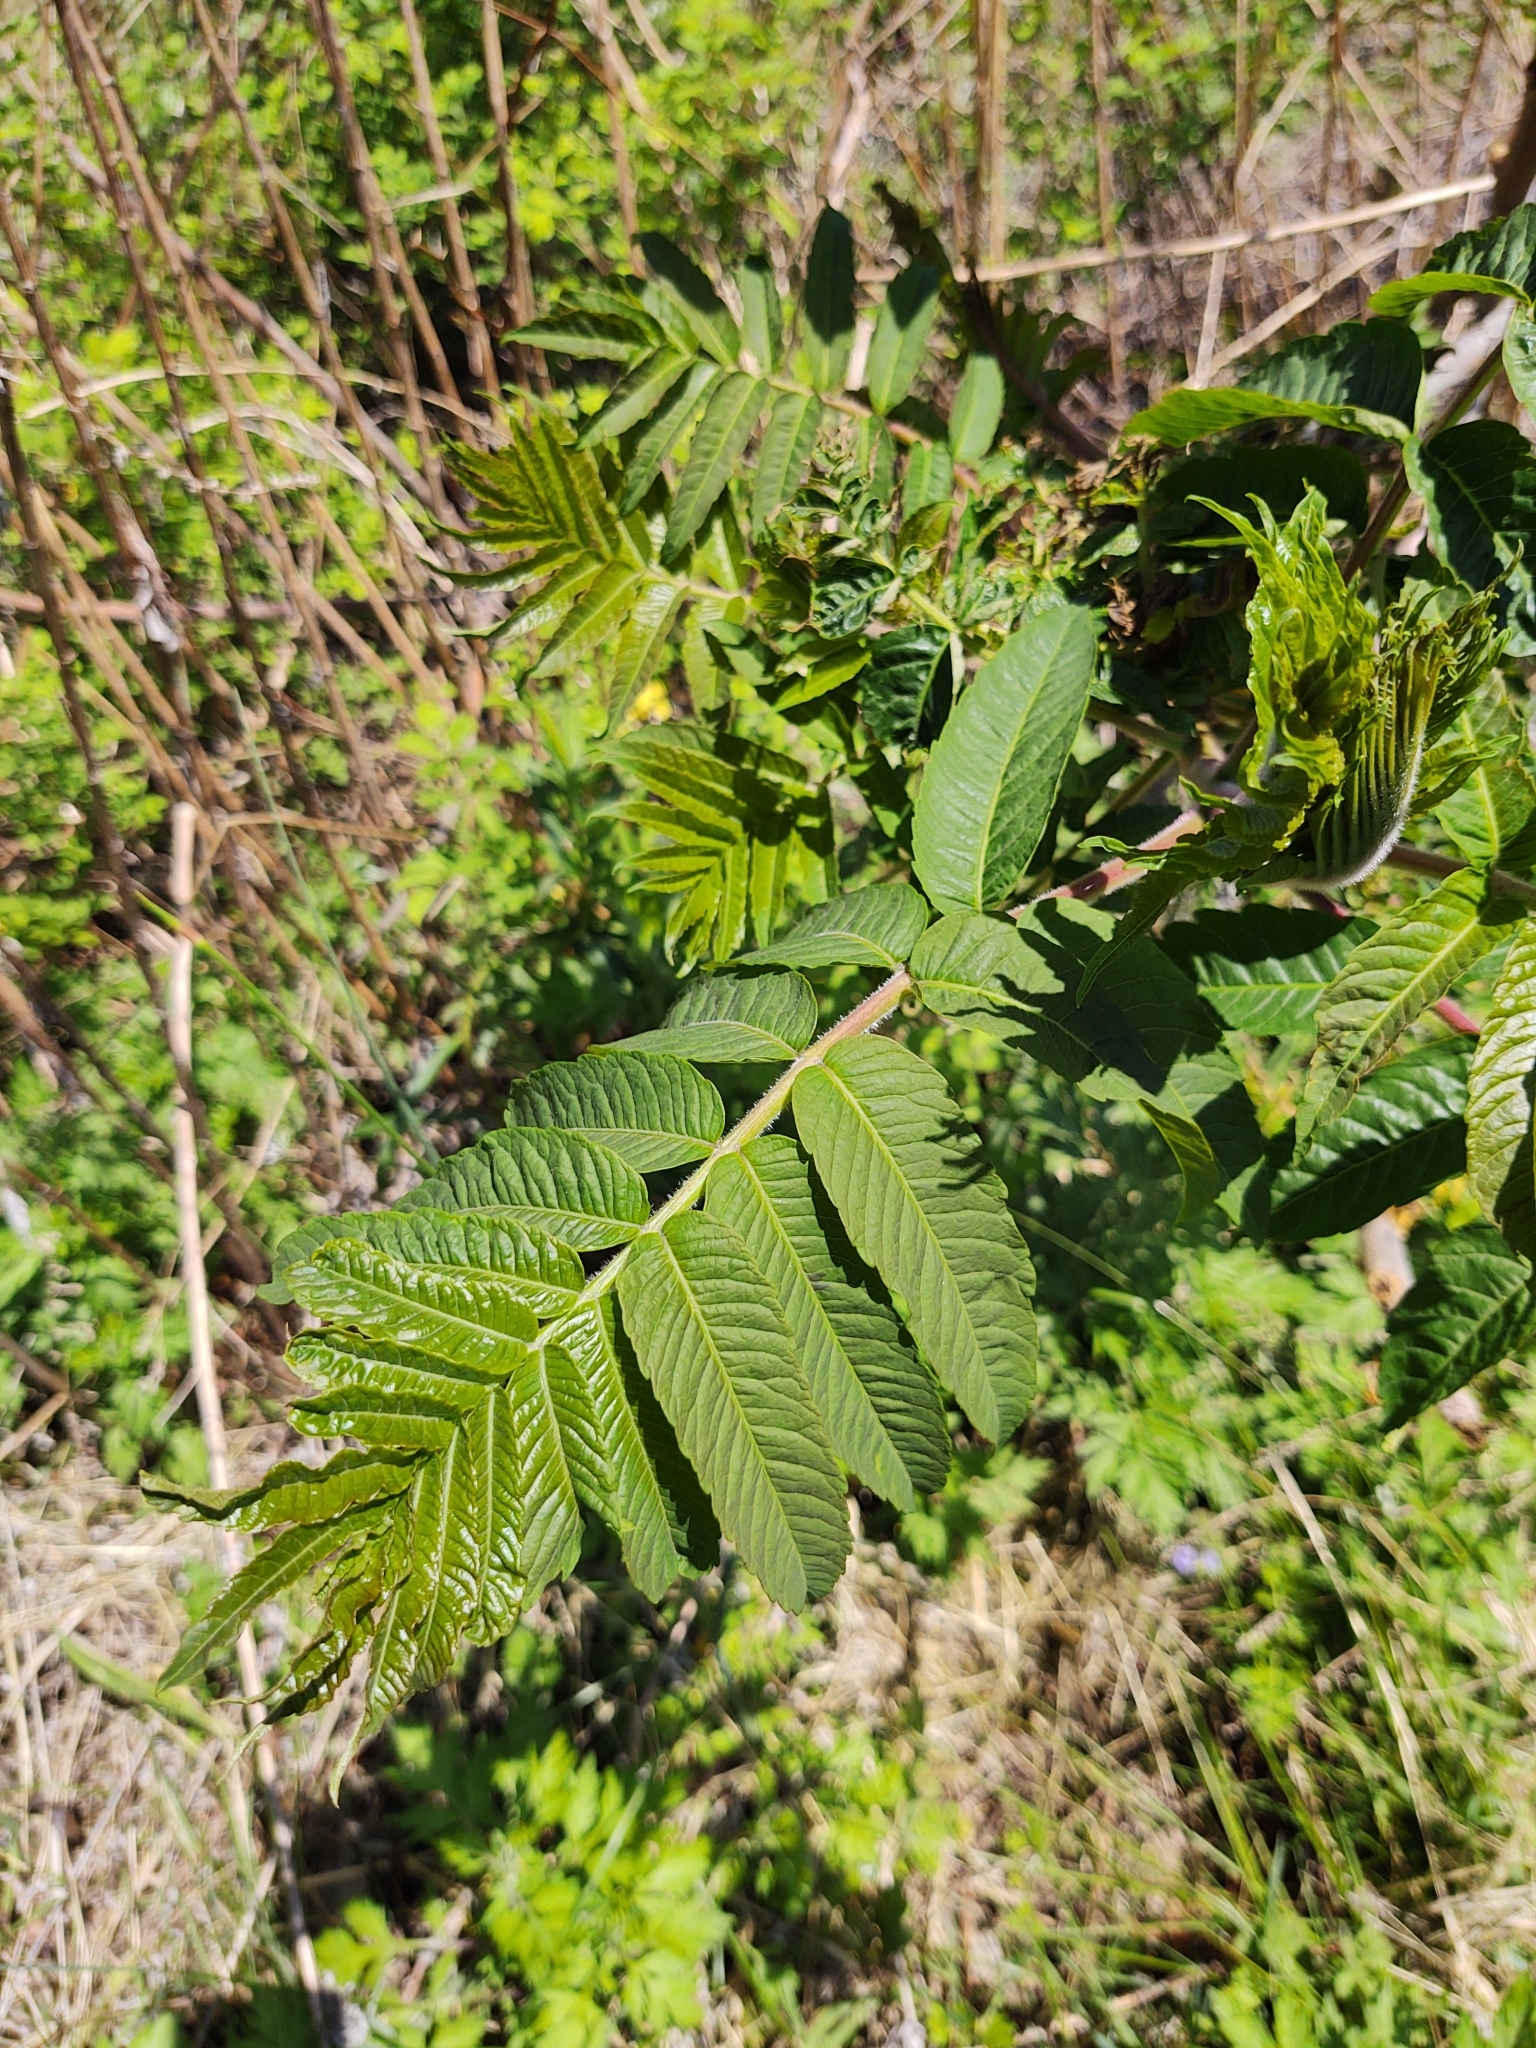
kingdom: Plantae
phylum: Tracheophyta
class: Magnoliopsida
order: Sapindales
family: Anacardiaceae
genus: Rhus
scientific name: Rhus typhina
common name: Staghorn sumac
